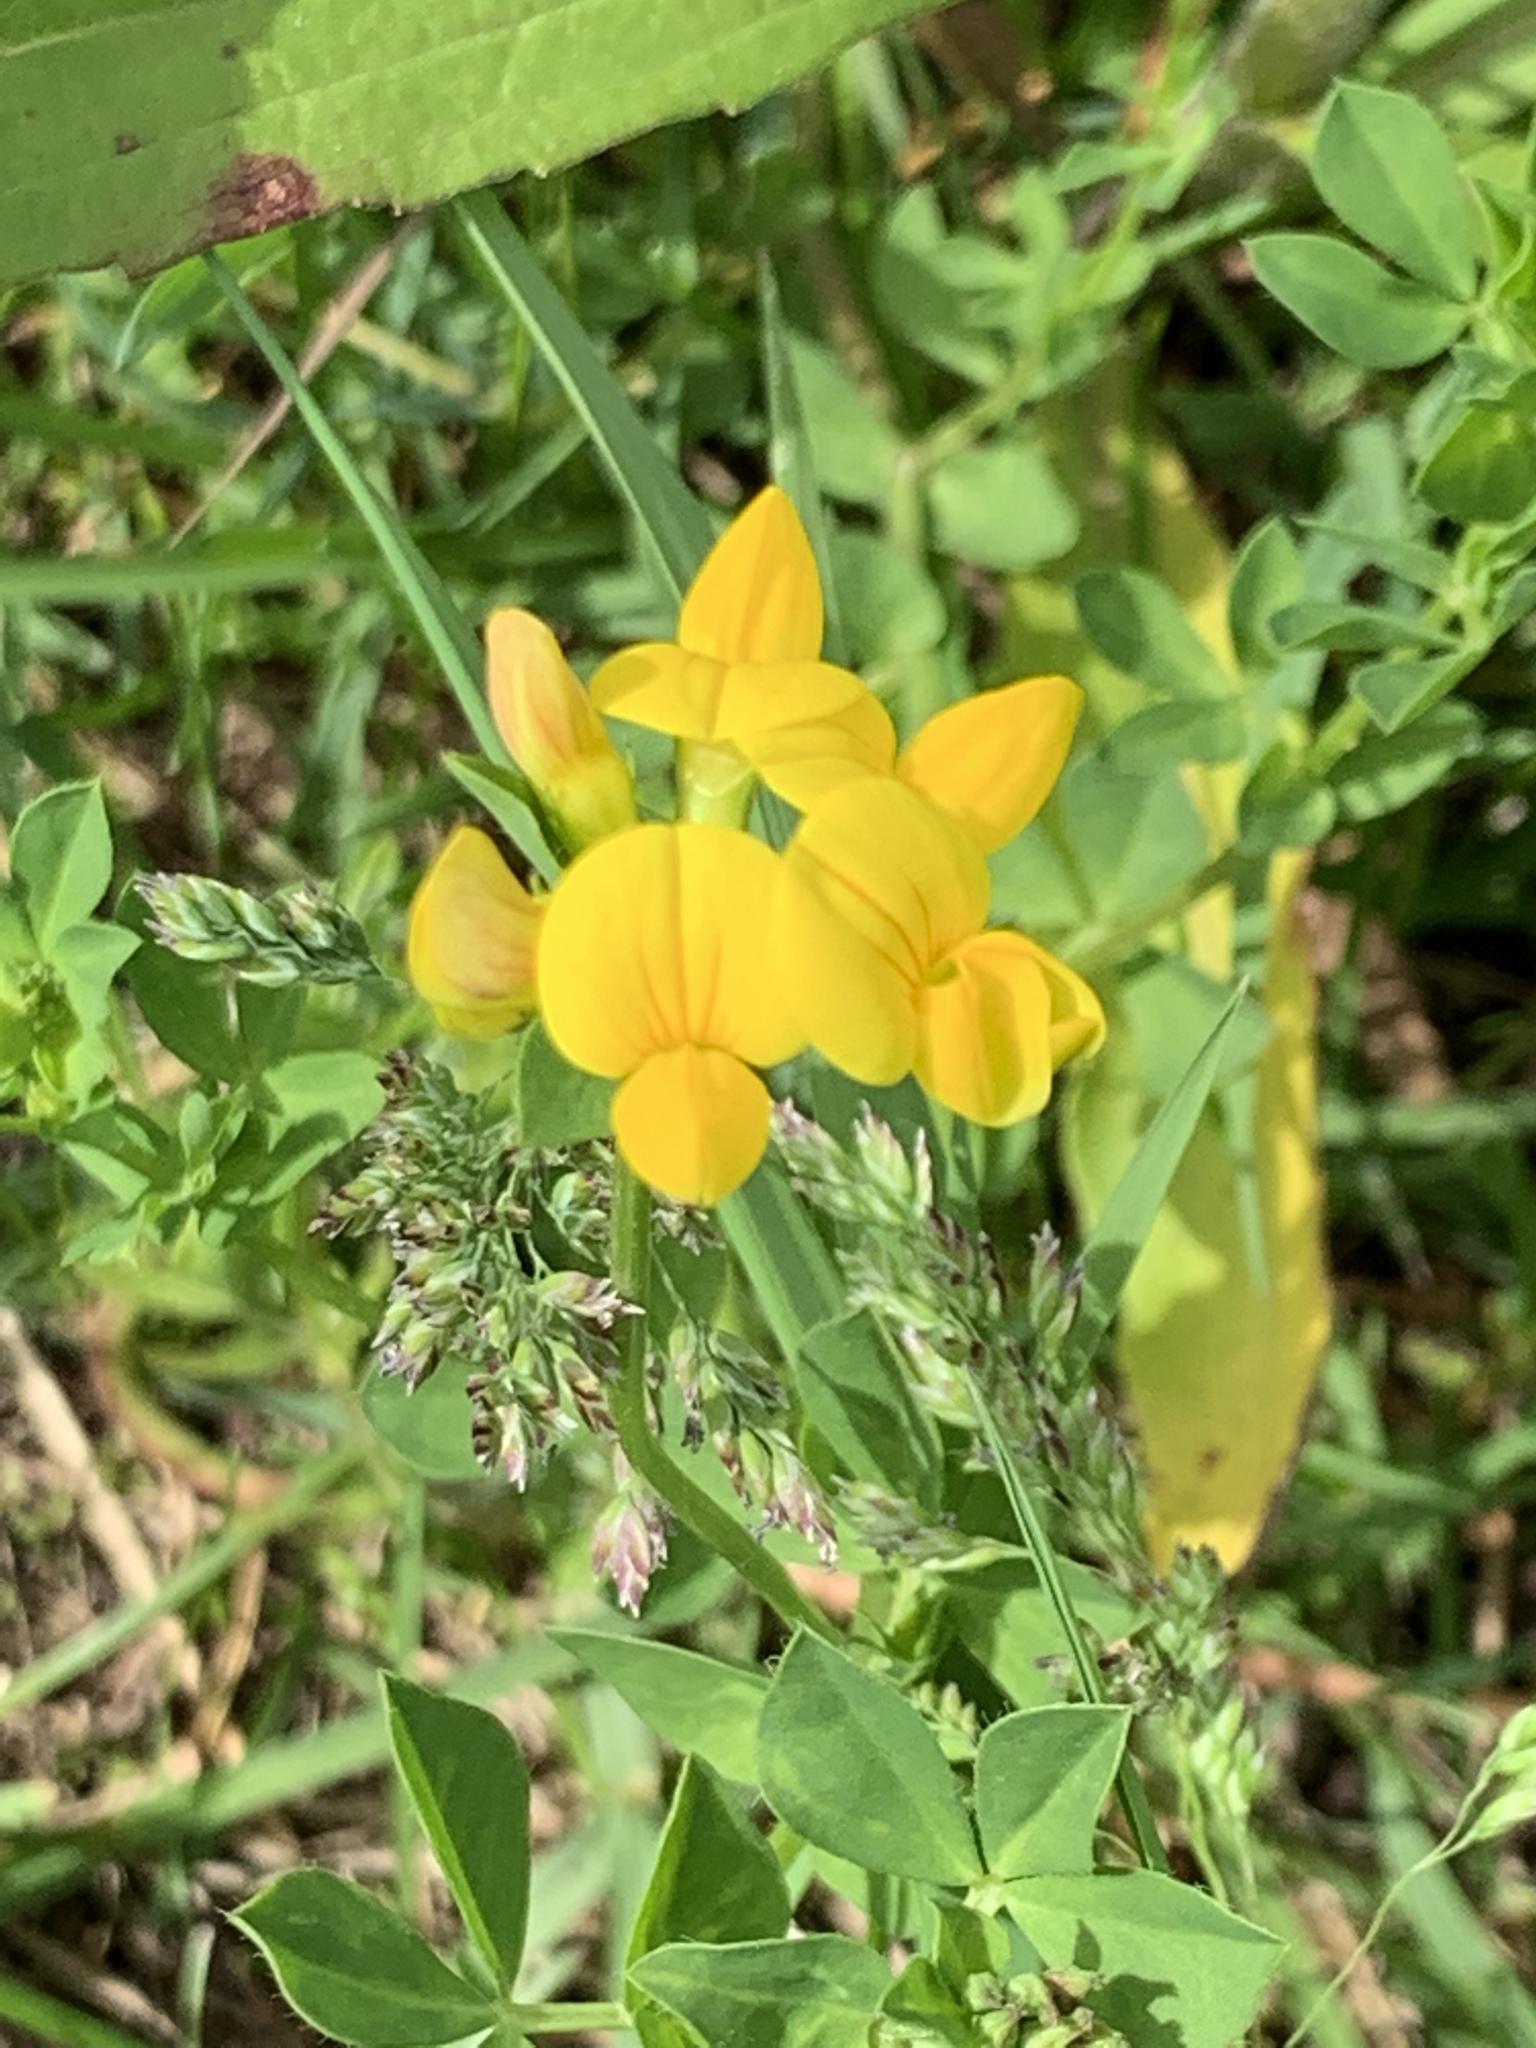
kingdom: Plantae
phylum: Tracheophyta
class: Magnoliopsida
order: Fabales
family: Fabaceae
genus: Lotus
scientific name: Lotus corniculatus
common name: Common bird's-foot-trefoil
